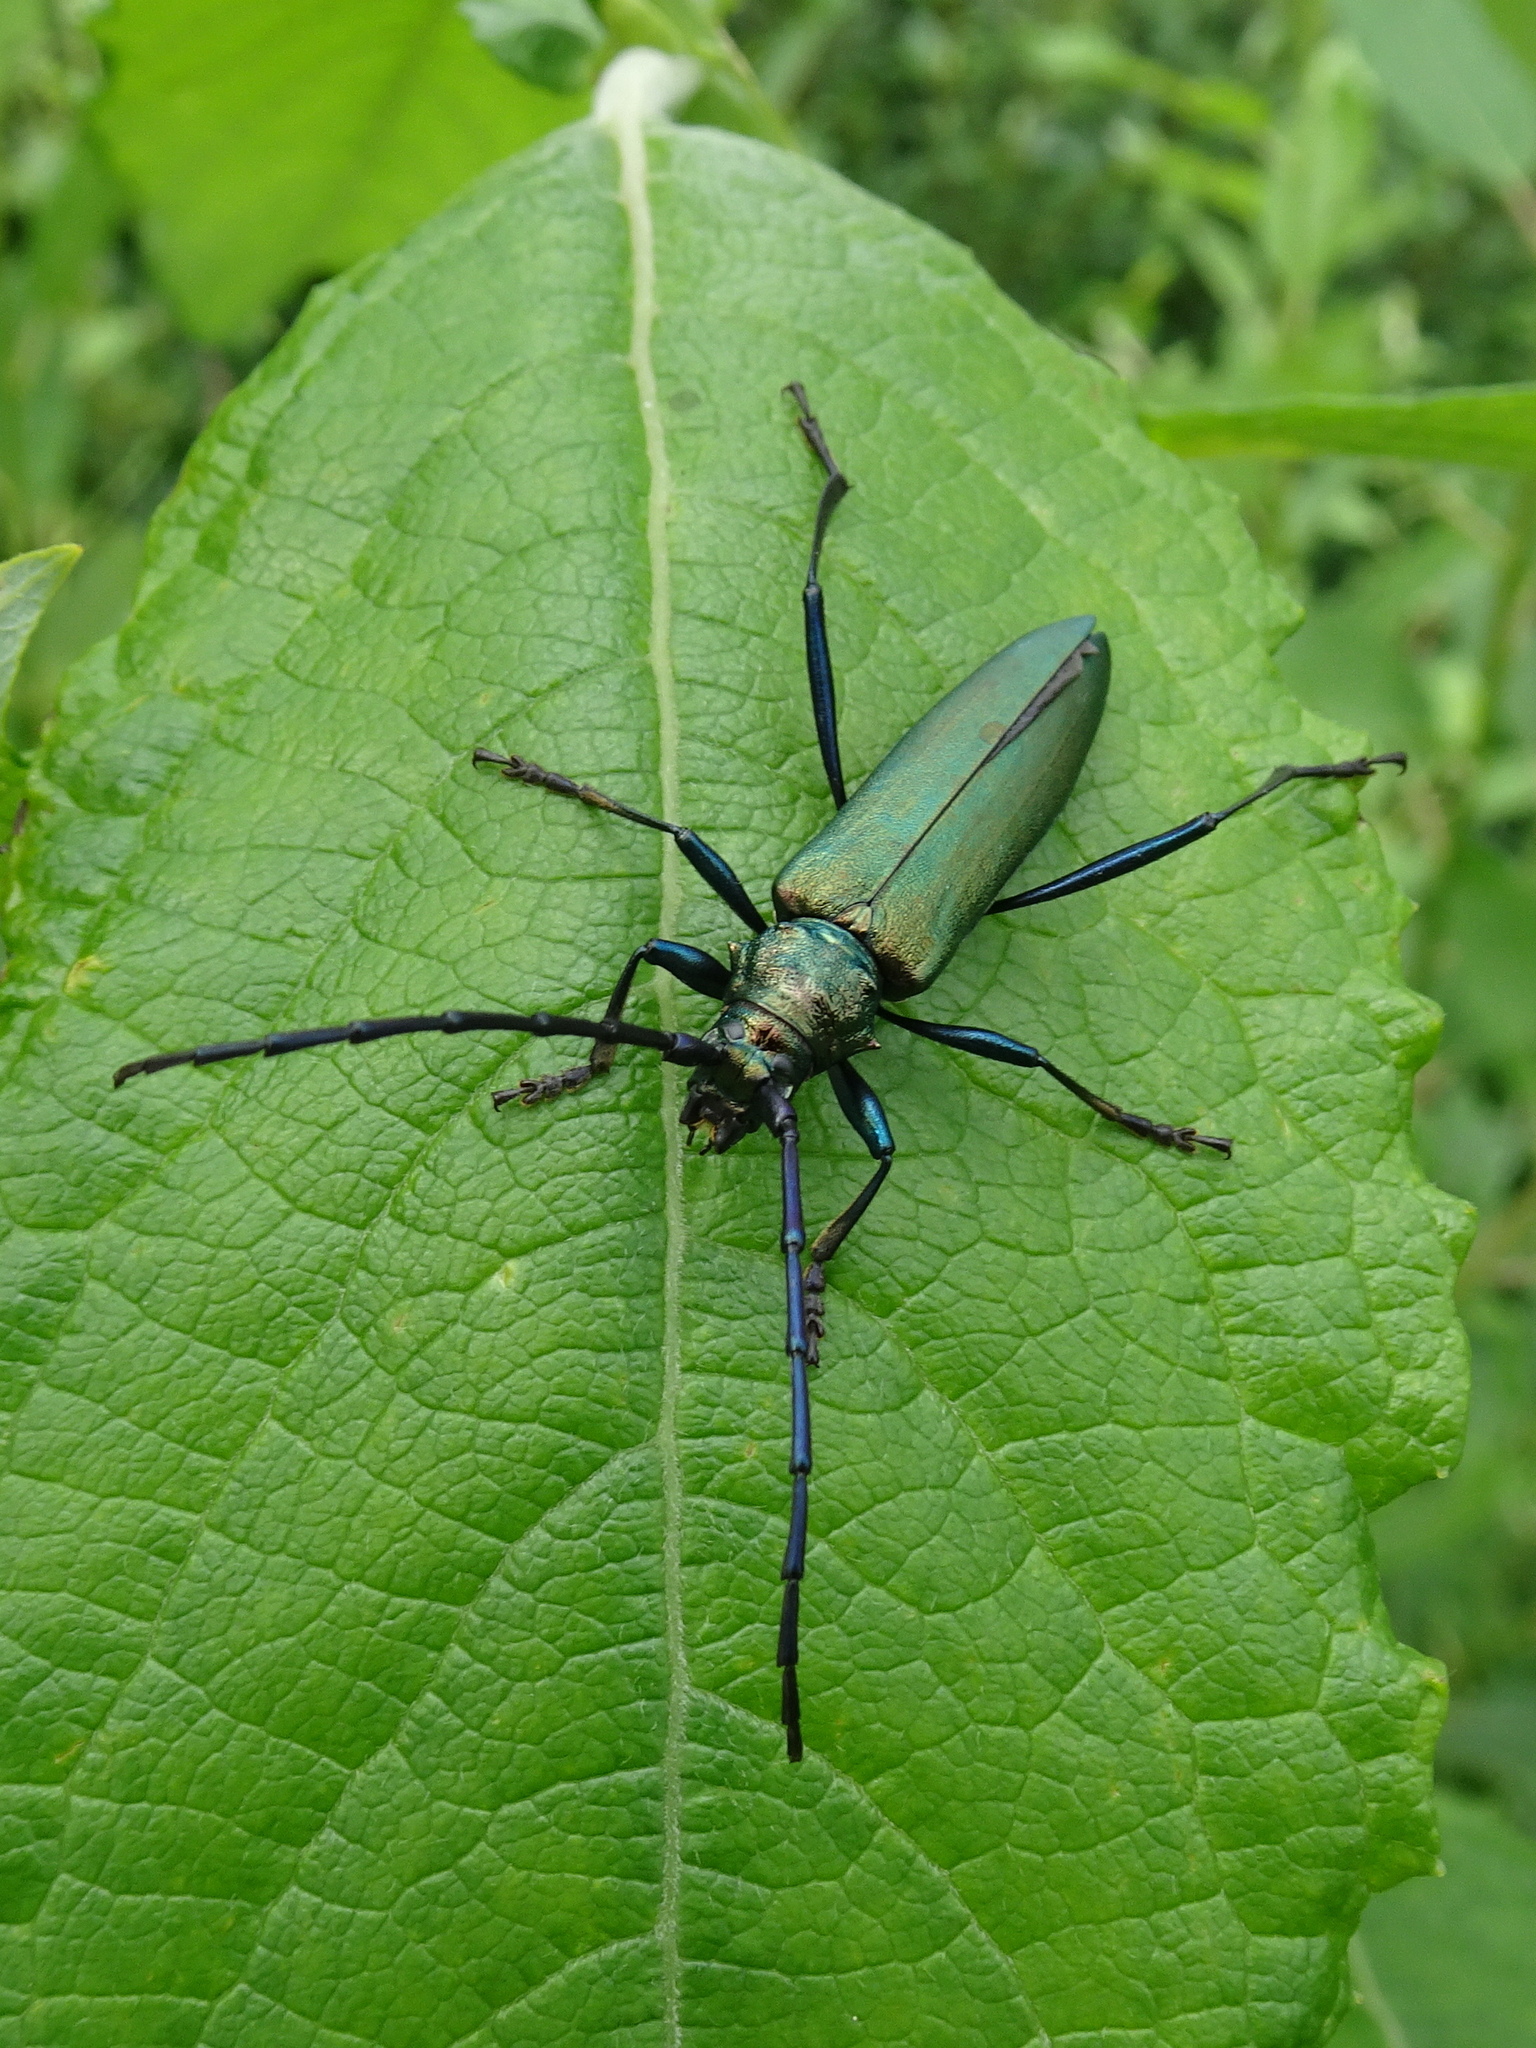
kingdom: Animalia
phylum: Arthropoda
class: Insecta
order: Coleoptera
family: Cerambycidae
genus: Aromia
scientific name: Aromia moschata
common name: Musk beetle
